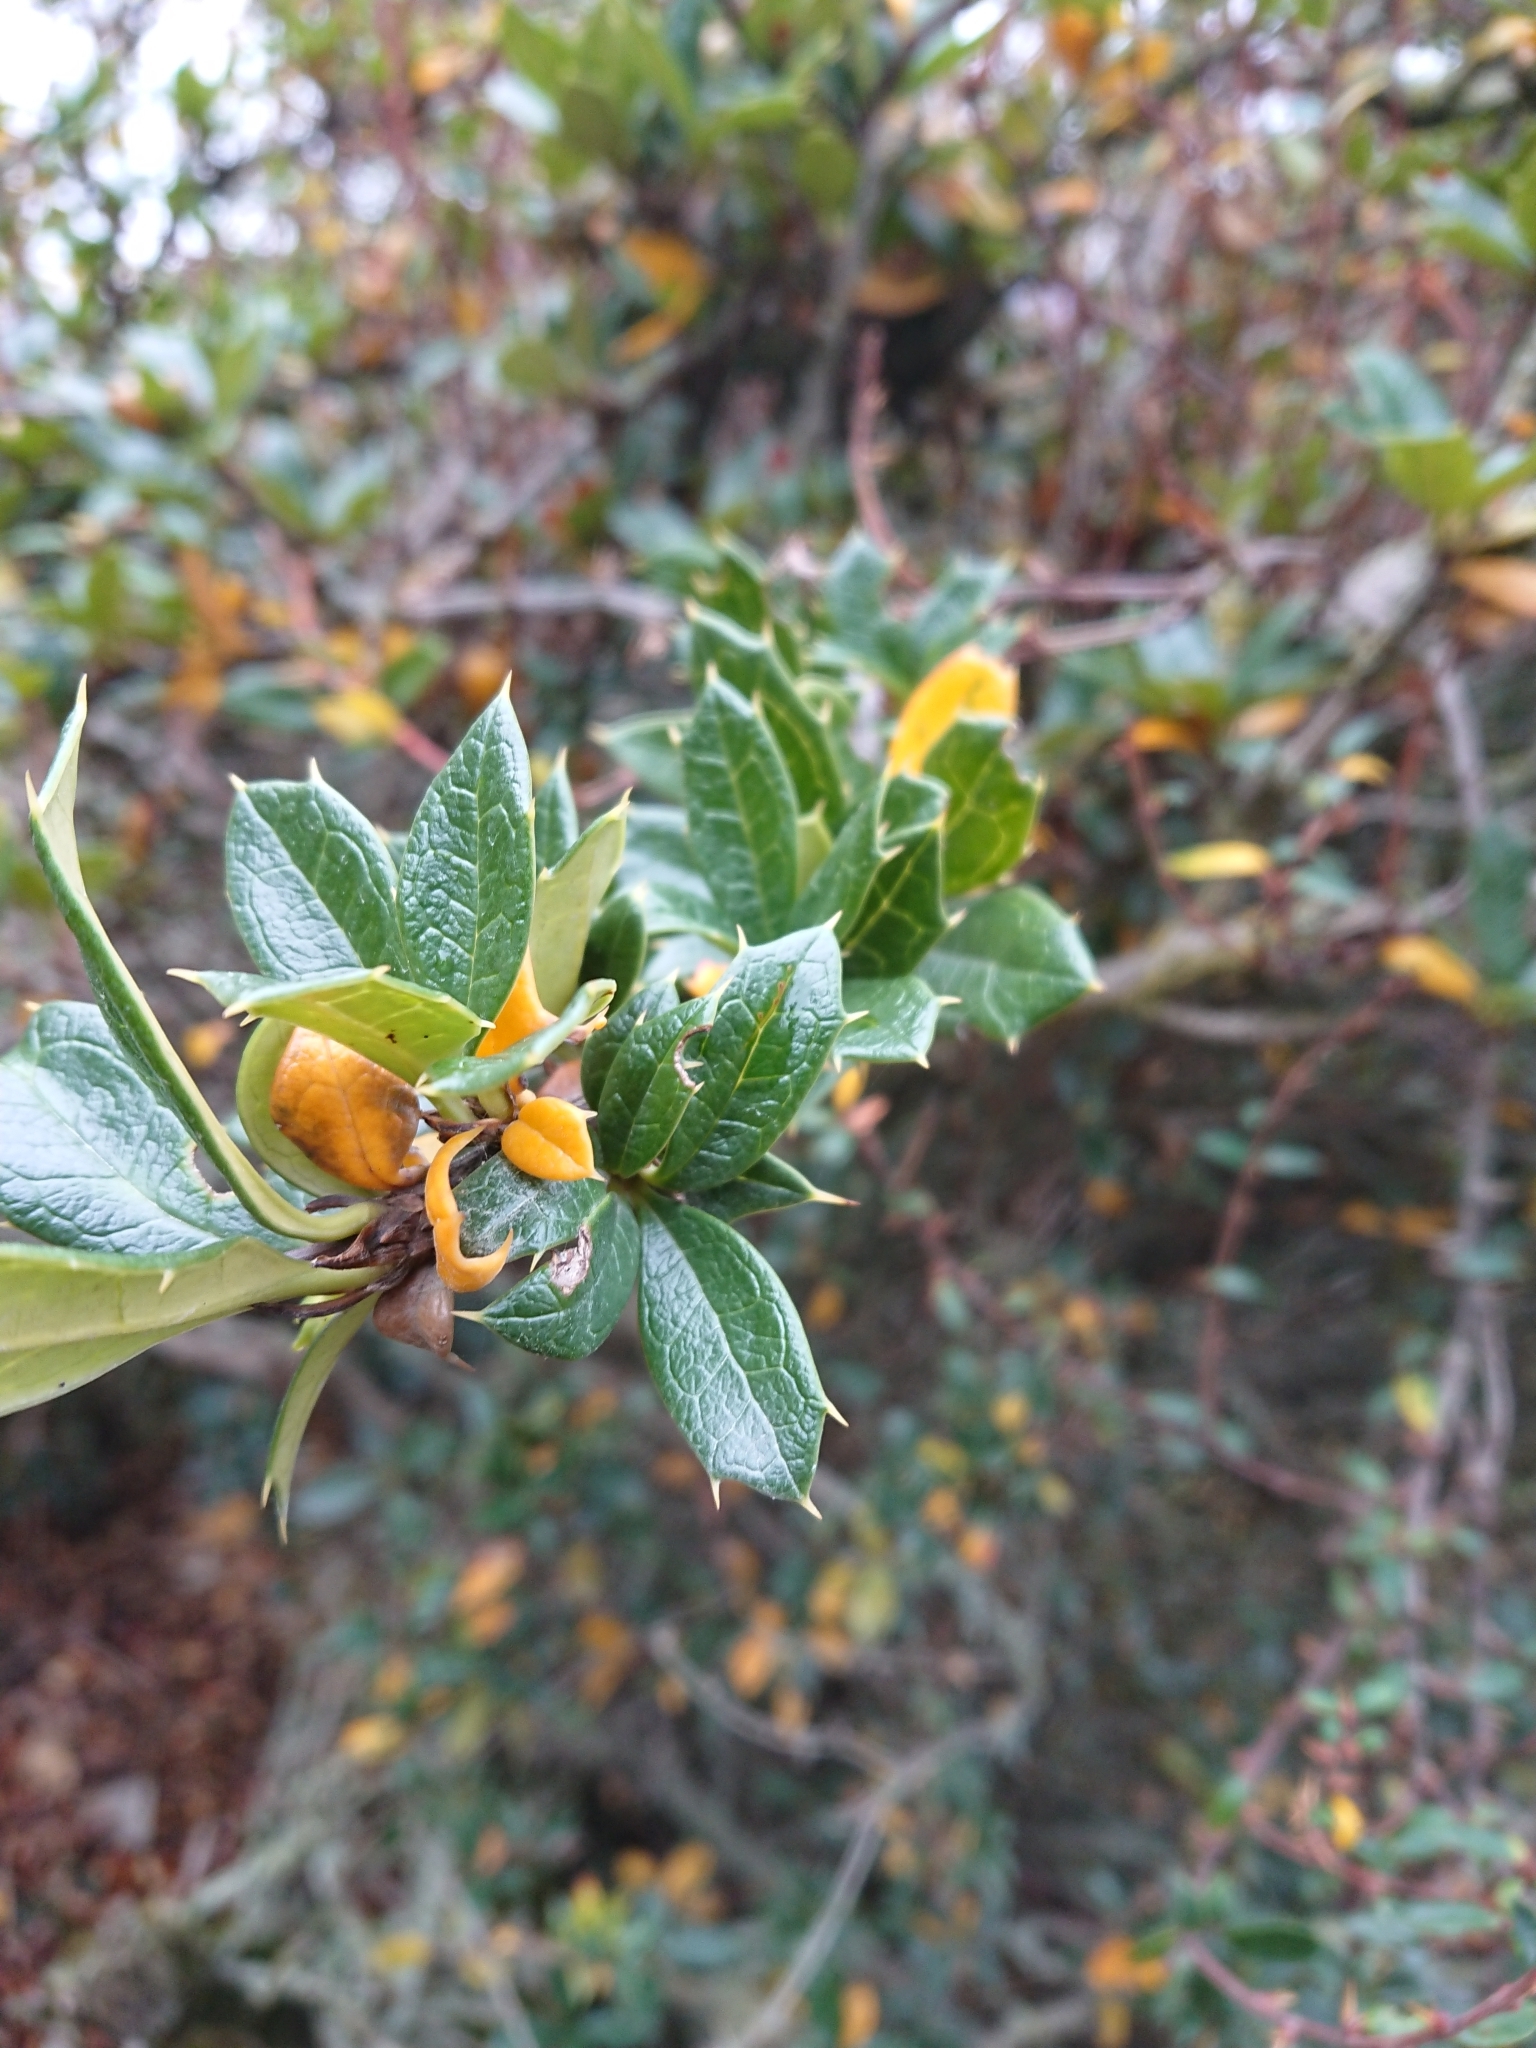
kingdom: Plantae
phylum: Tracheophyta
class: Magnoliopsida
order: Ranunculales
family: Berberidaceae
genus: Berberis
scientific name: Berberis ilicifolia
